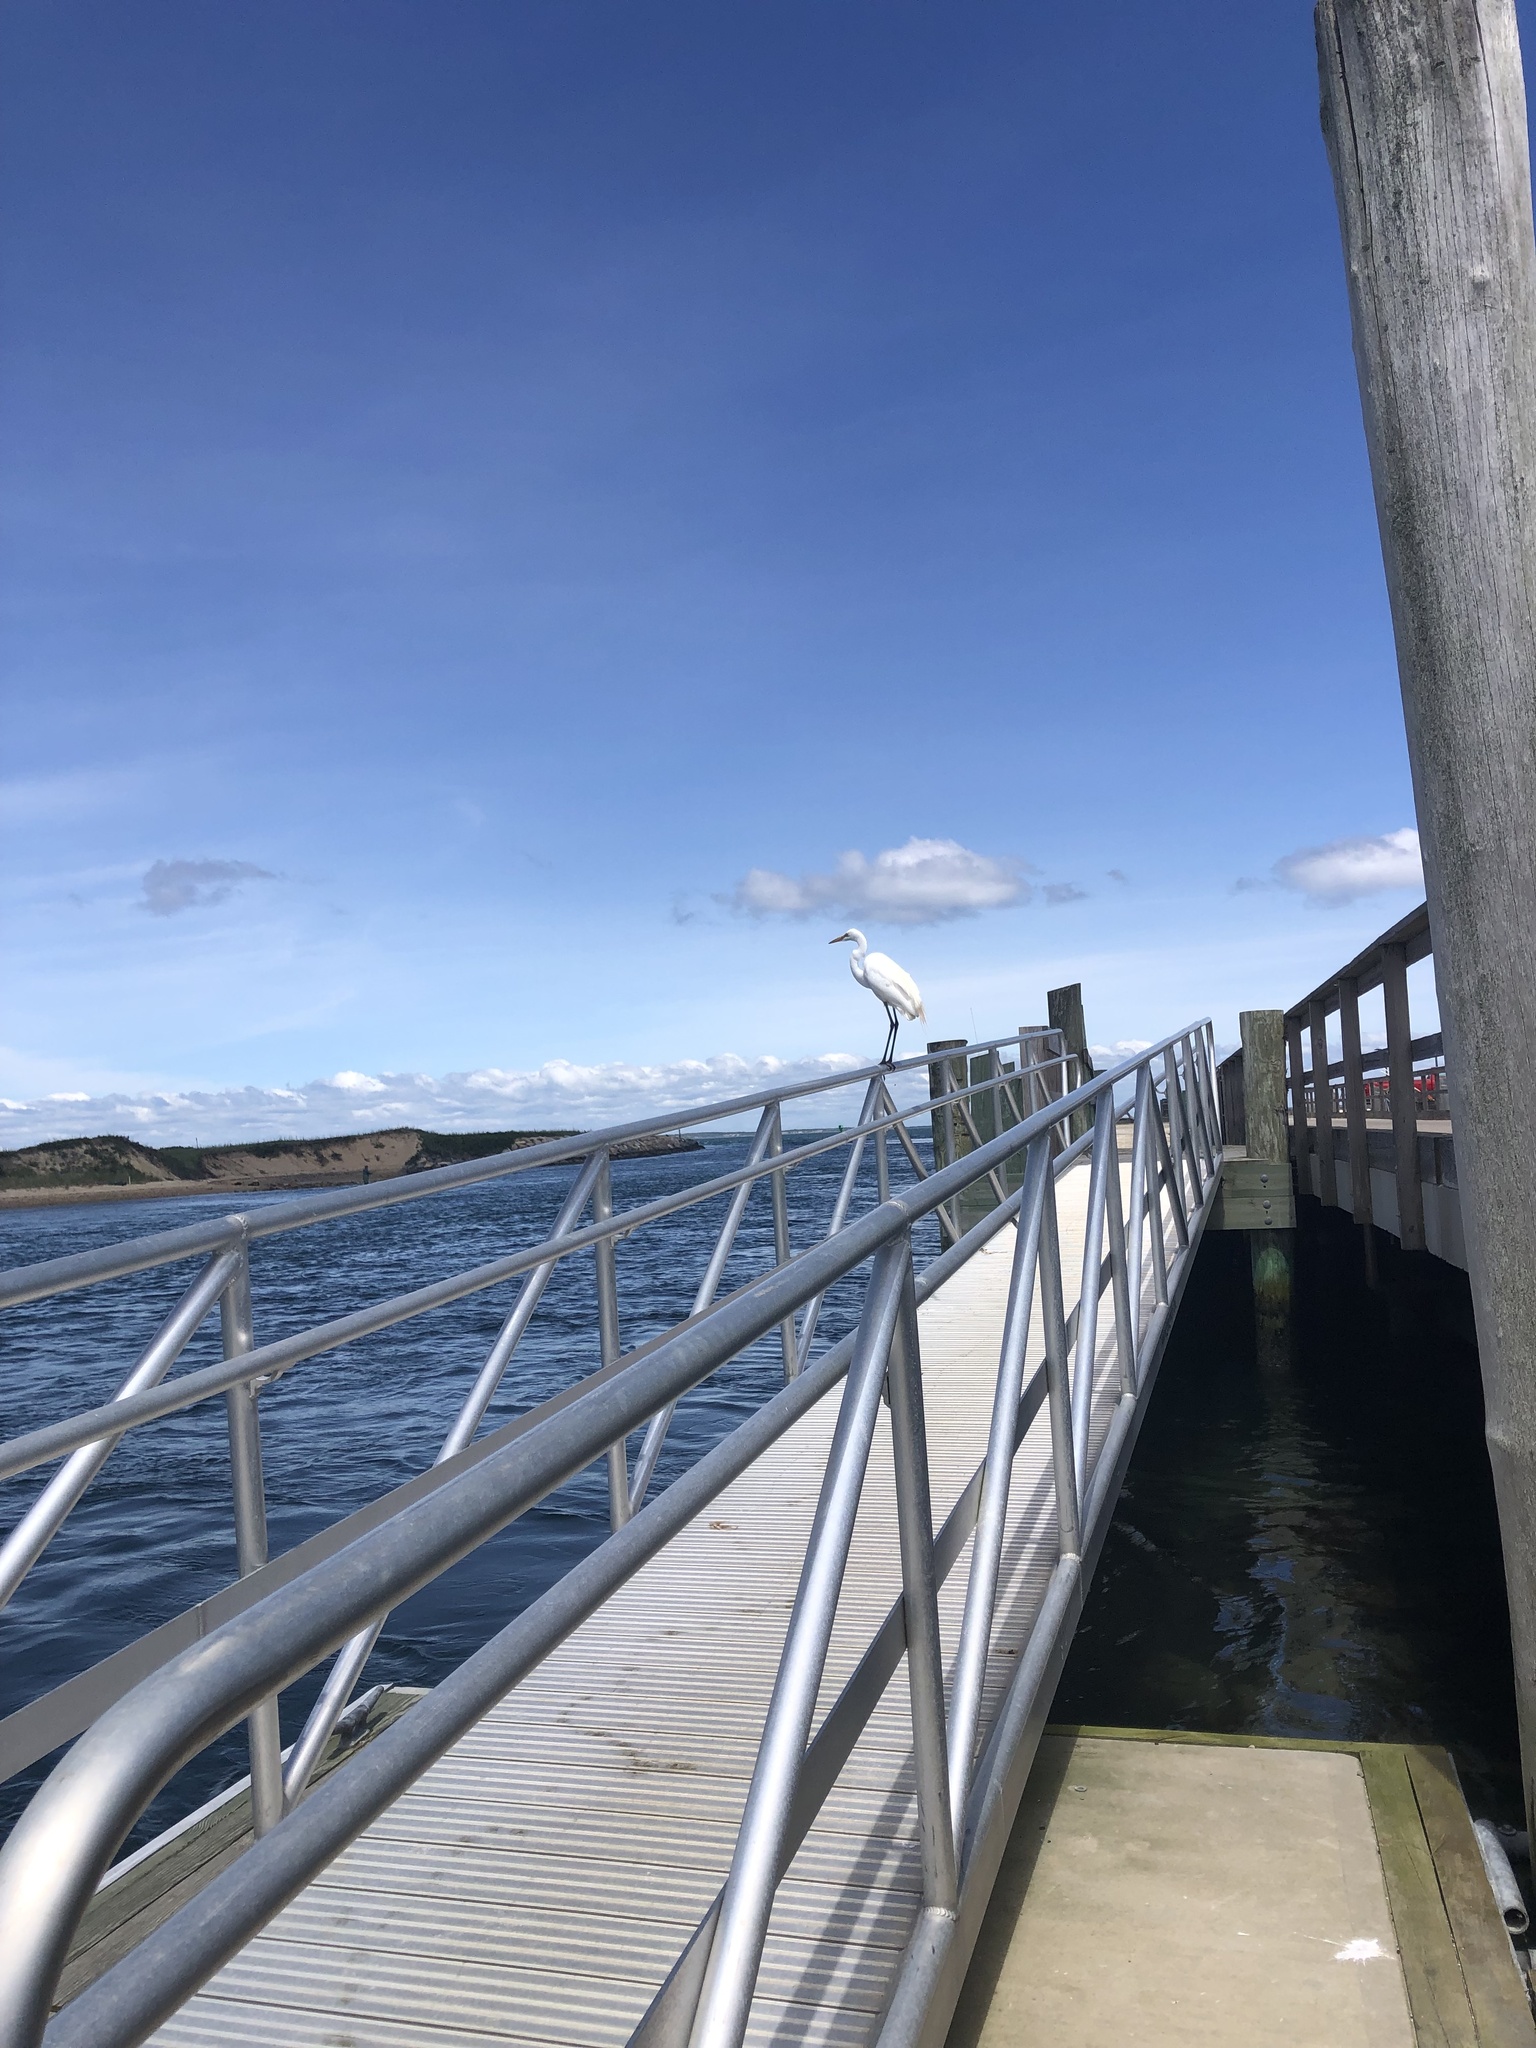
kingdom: Animalia
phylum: Chordata
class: Aves
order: Pelecaniformes
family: Ardeidae
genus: Ardea
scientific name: Ardea alba
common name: Great egret
